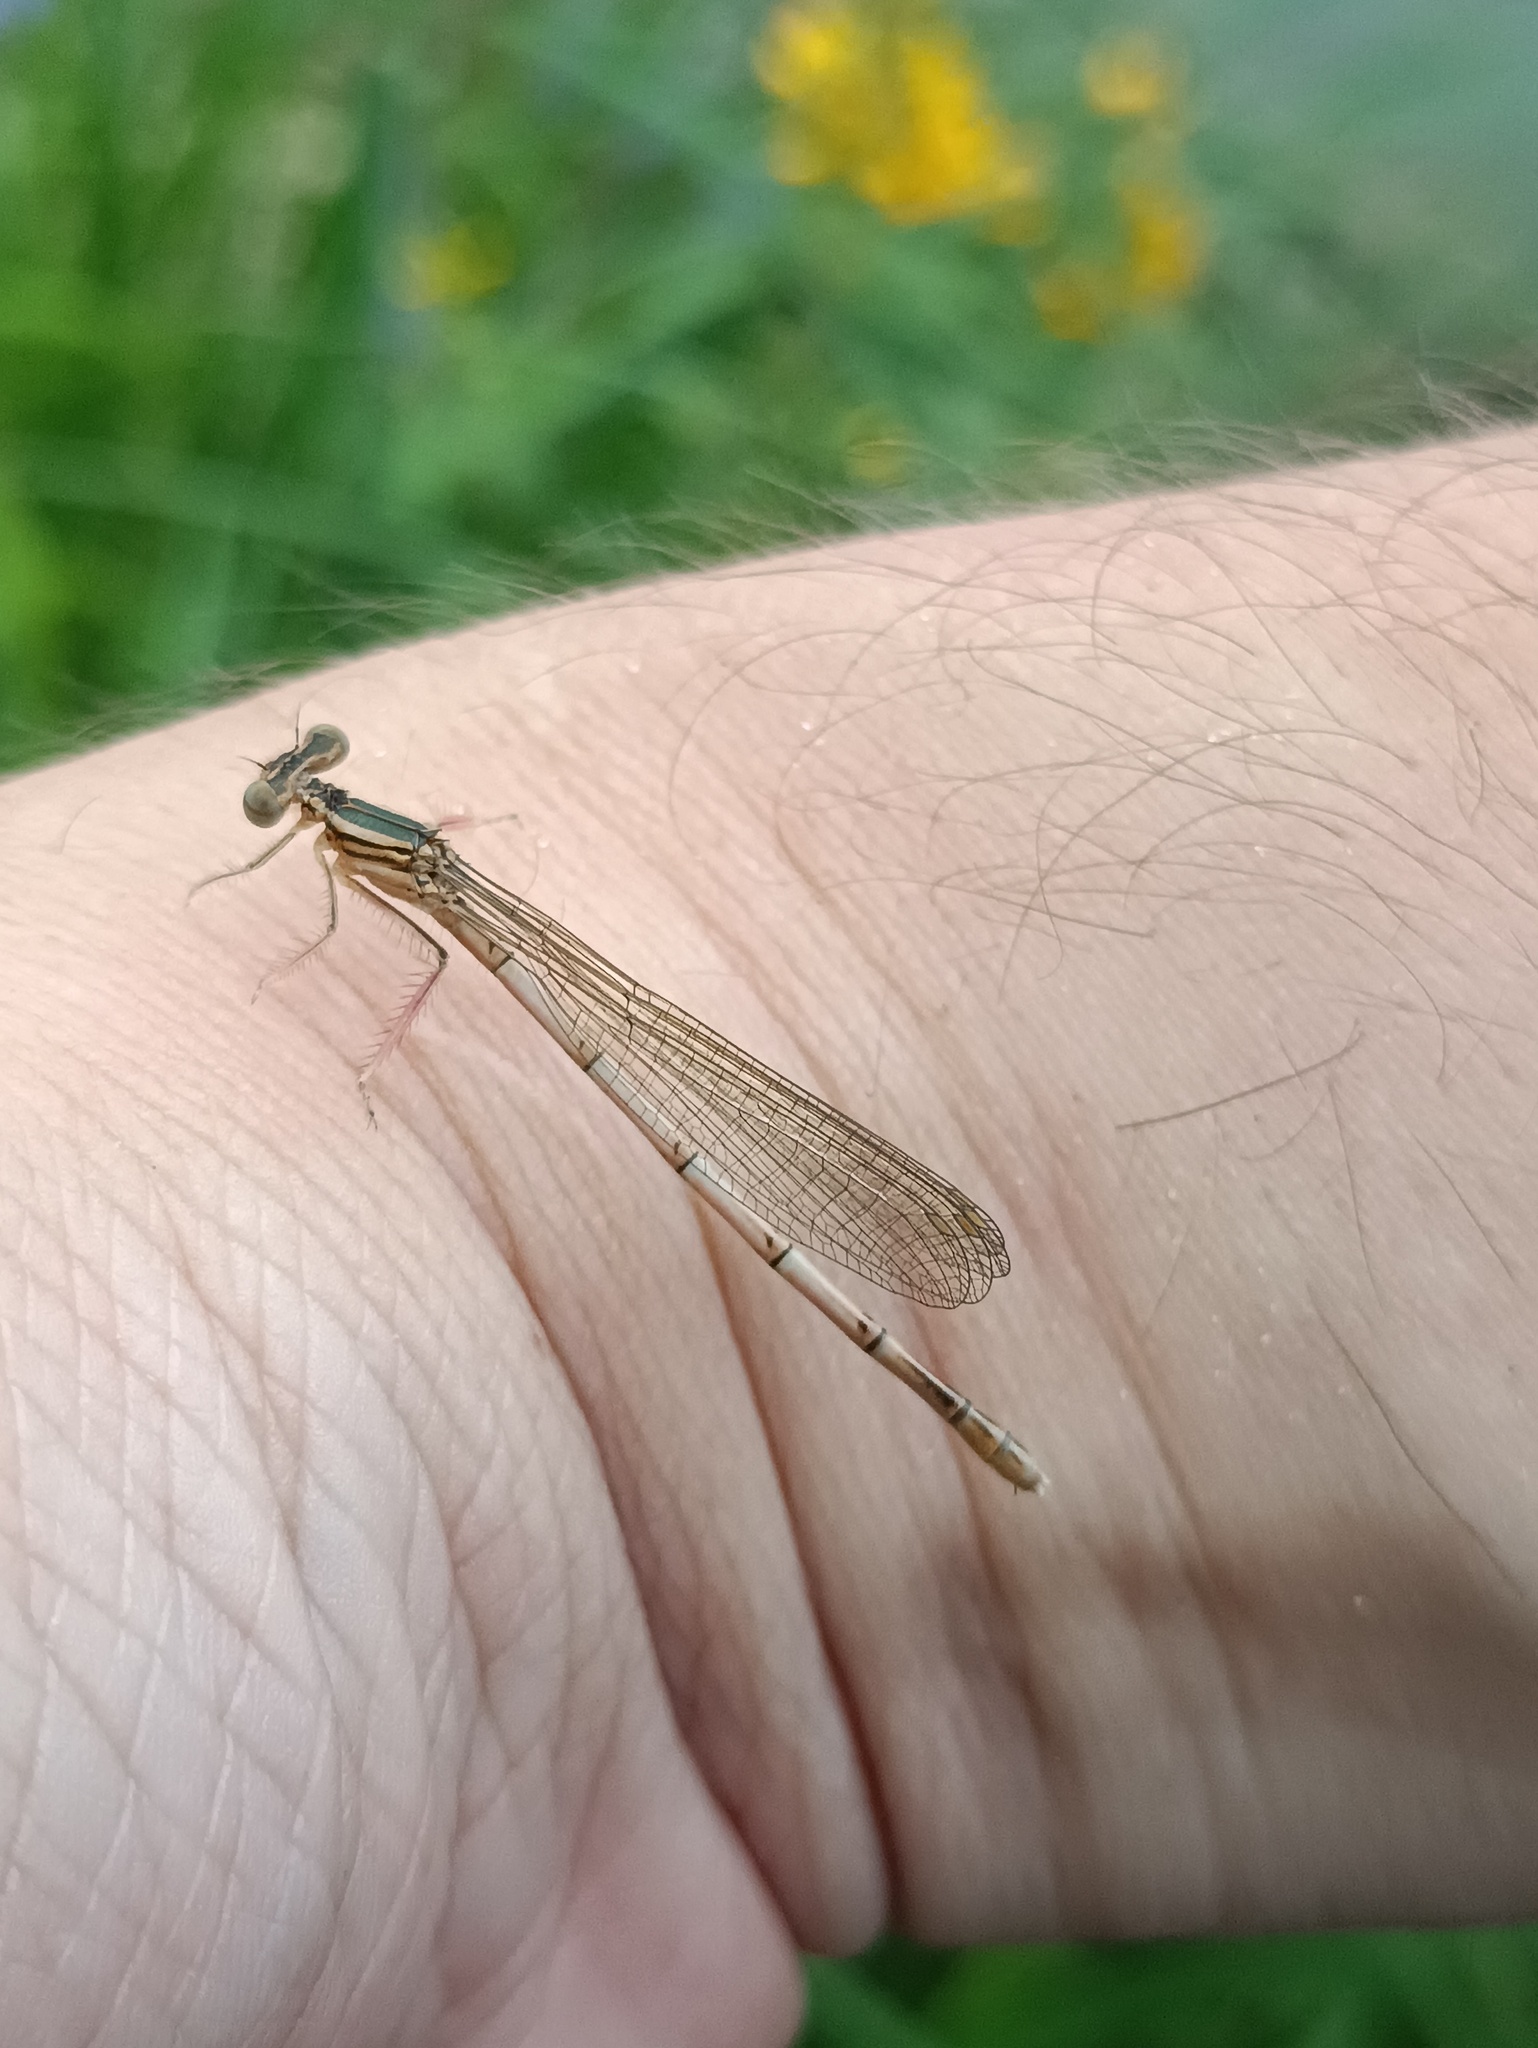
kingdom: Animalia
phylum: Arthropoda
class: Insecta
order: Odonata
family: Platycnemididae
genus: Platycnemis
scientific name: Platycnemis pennipes
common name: White-legged damselfly
